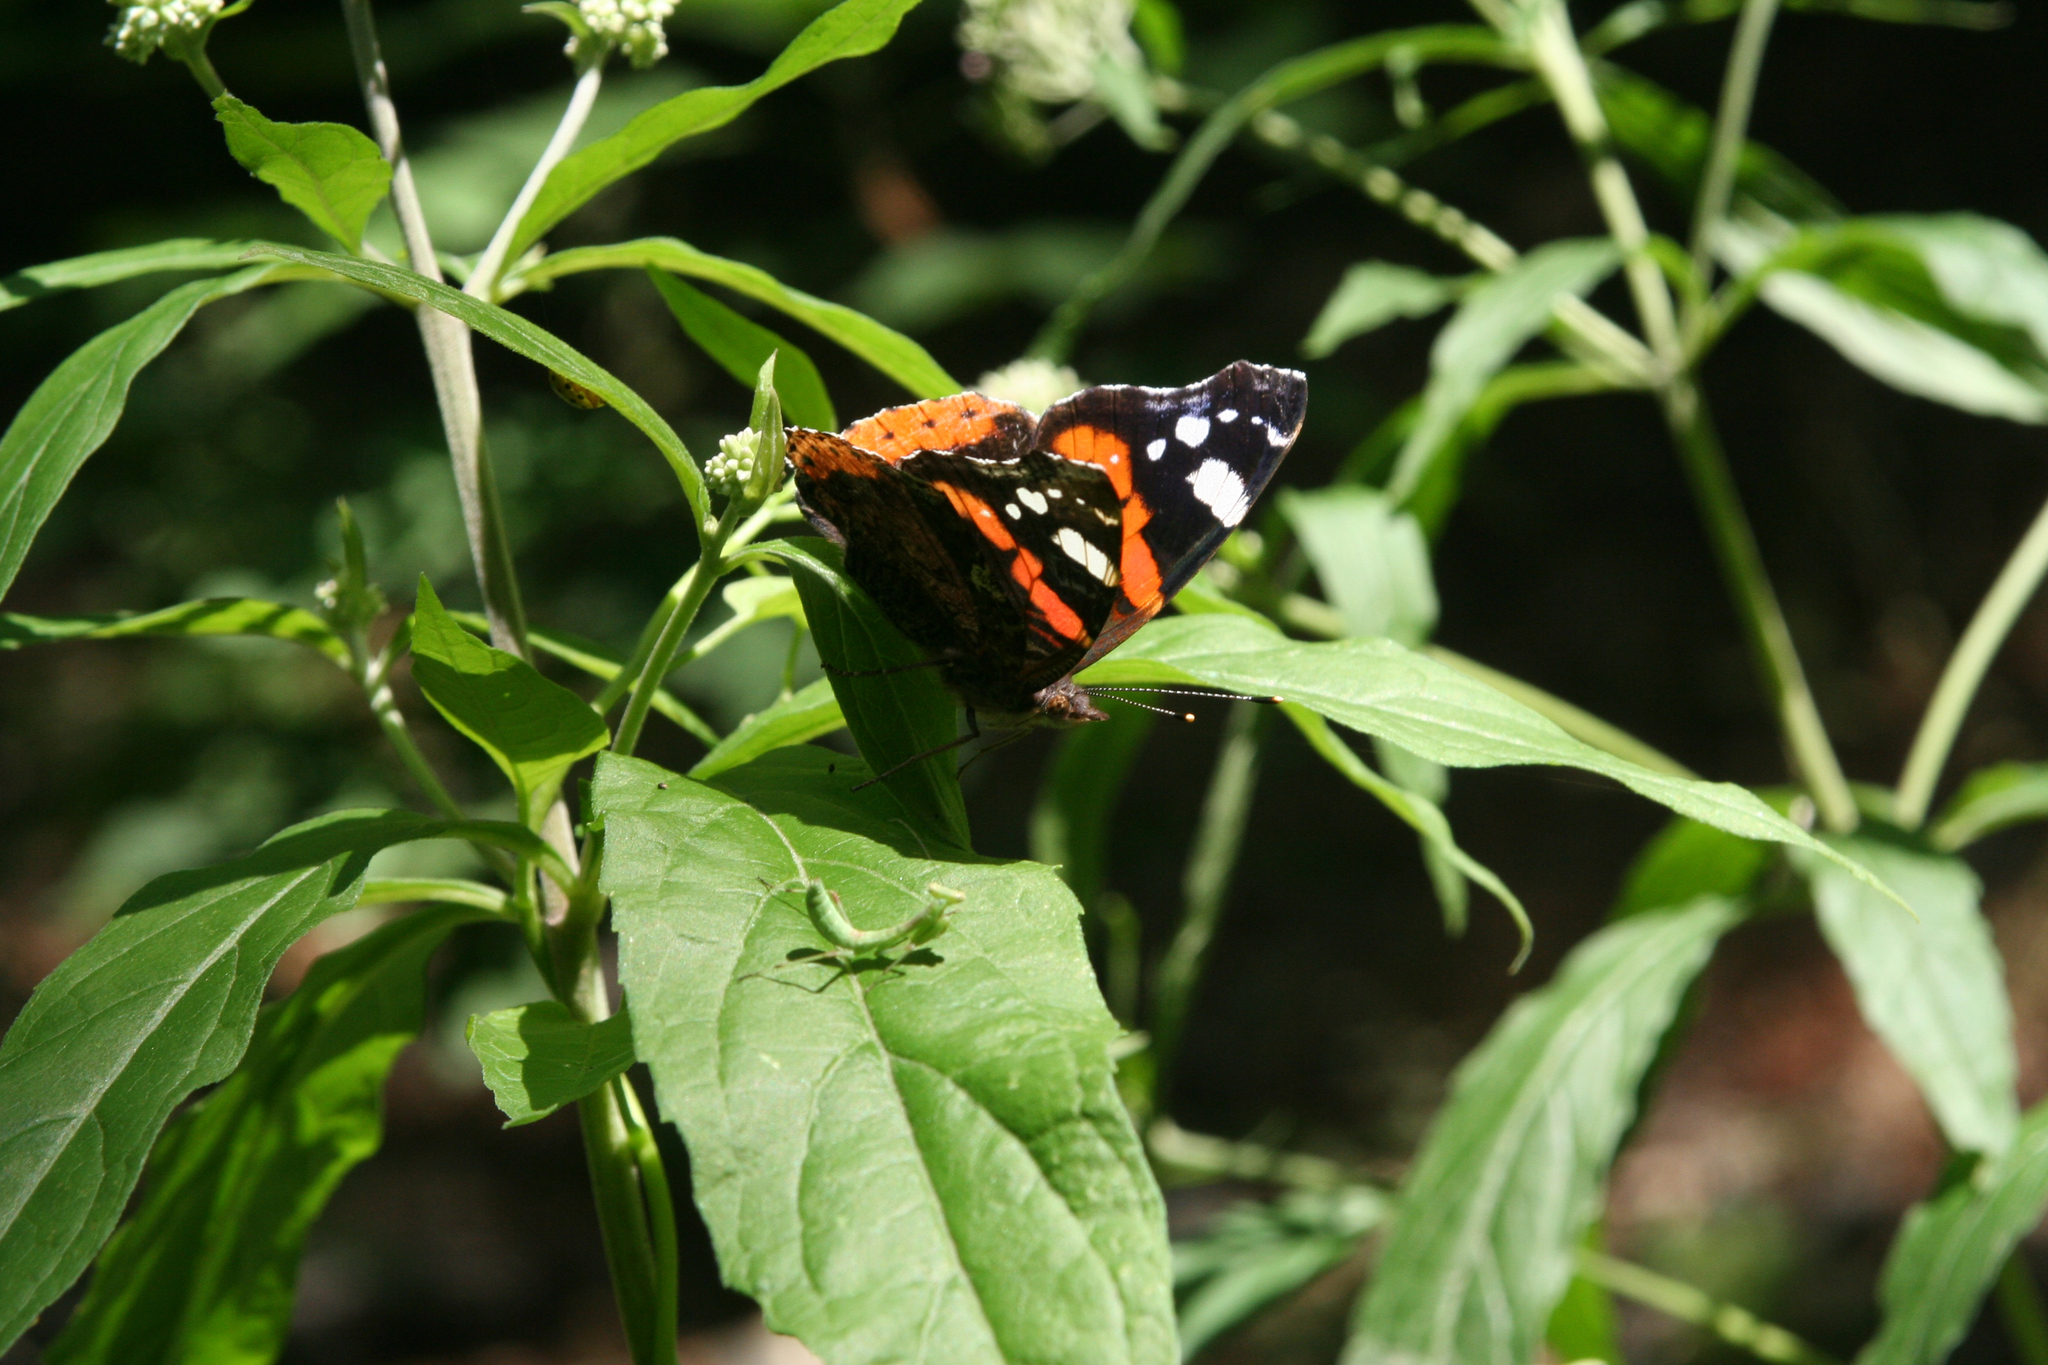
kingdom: Animalia
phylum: Arthropoda
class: Insecta
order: Lepidoptera
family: Nymphalidae
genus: Vanessa
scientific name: Vanessa atalanta
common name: Red admiral
